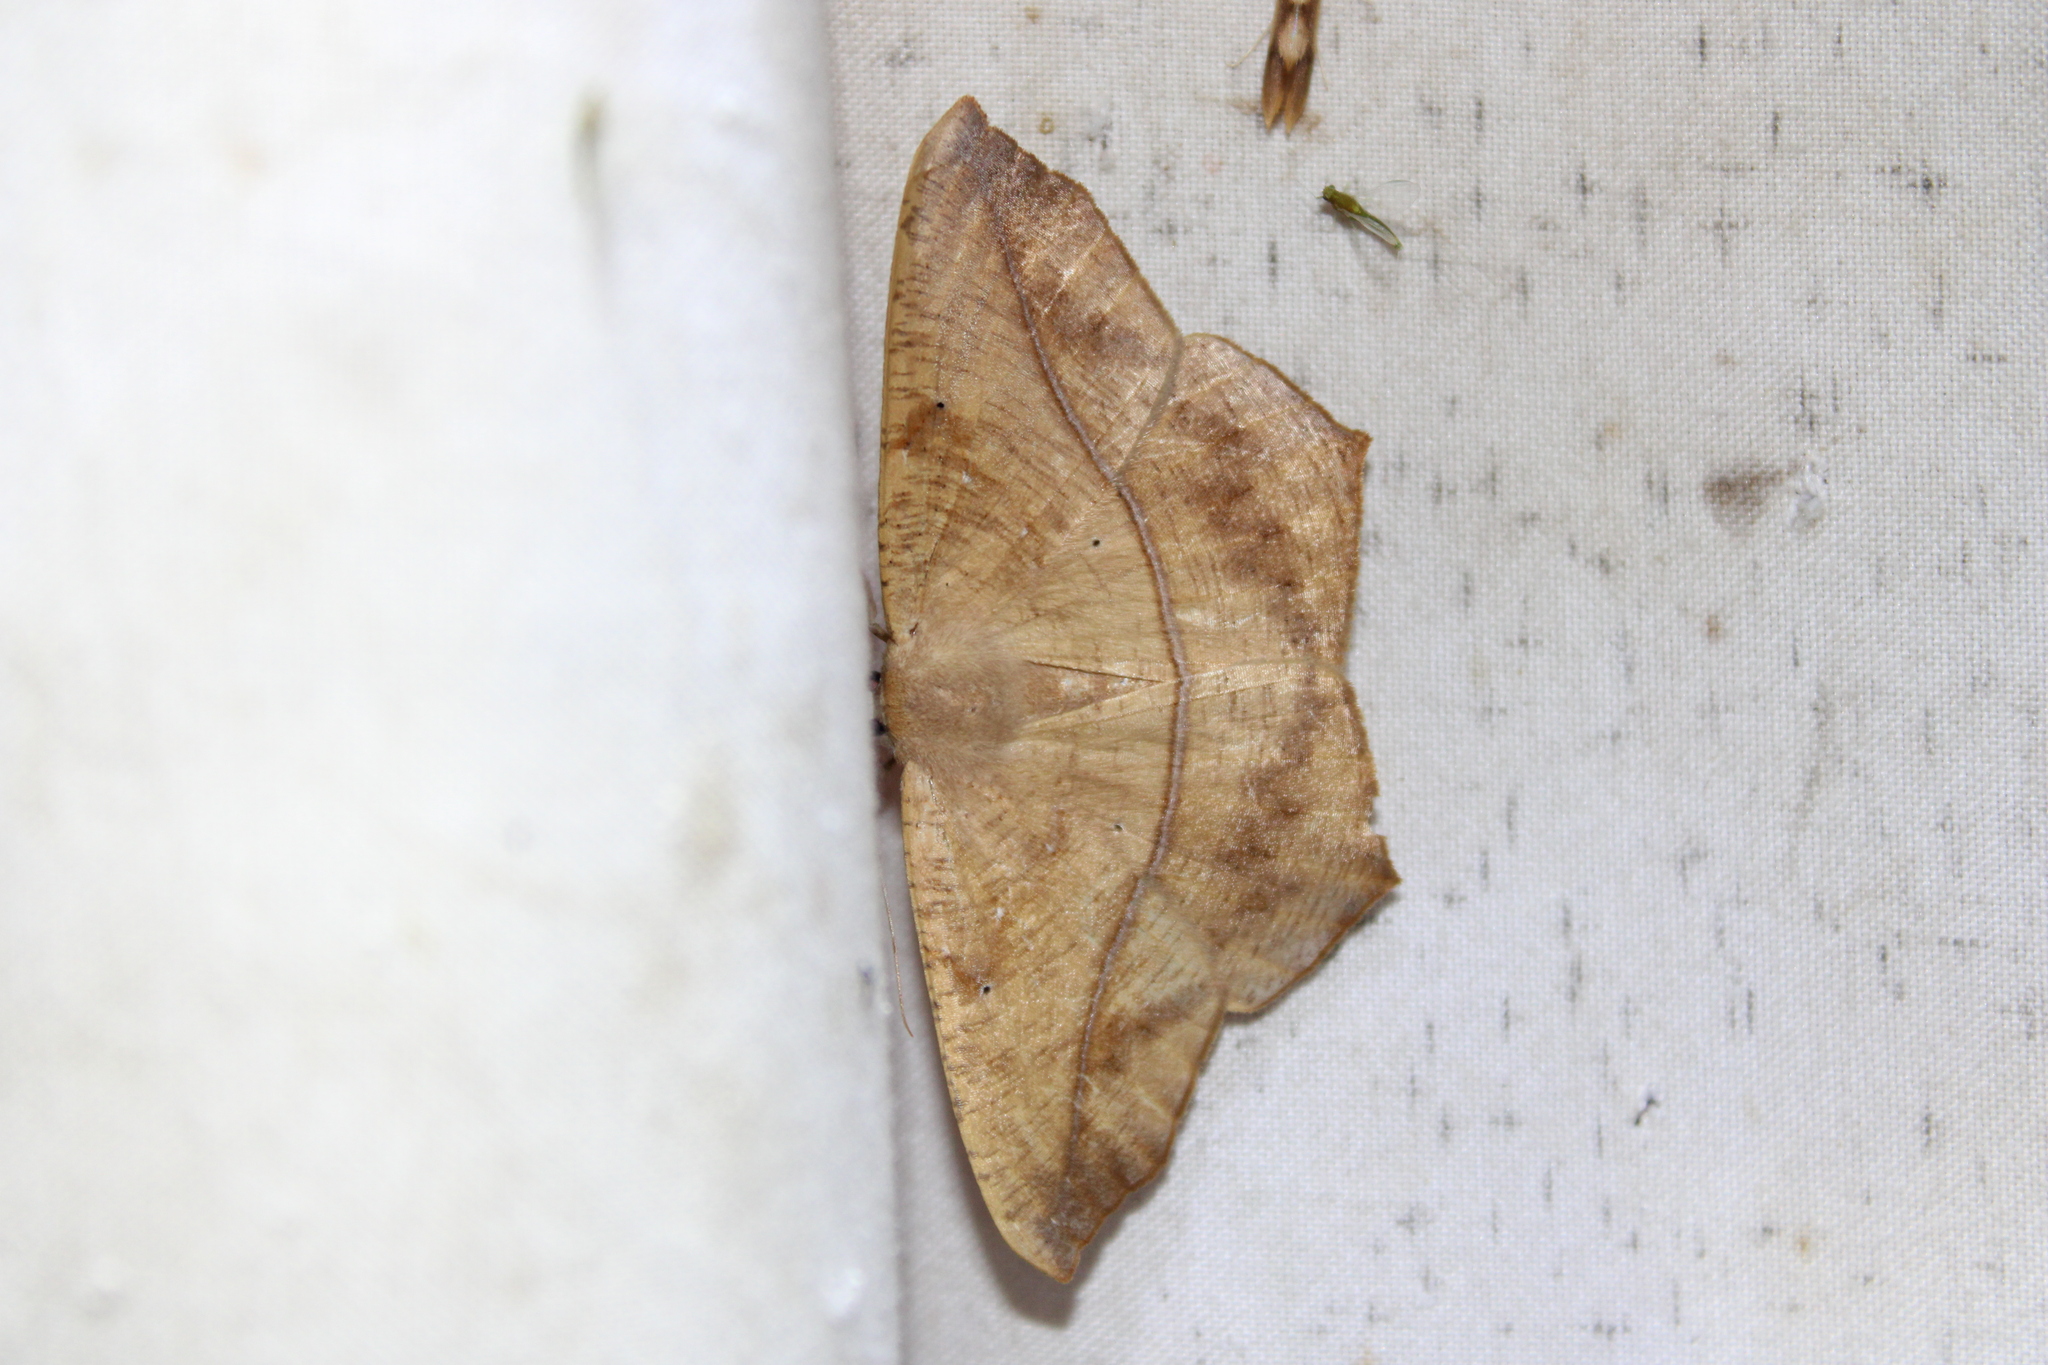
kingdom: Animalia
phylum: Arthropoda
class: Insecta
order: Lepidoptera
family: Geometridae
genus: Prochoerodes
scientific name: Prochoerodes lineola
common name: Large maple spanworm
